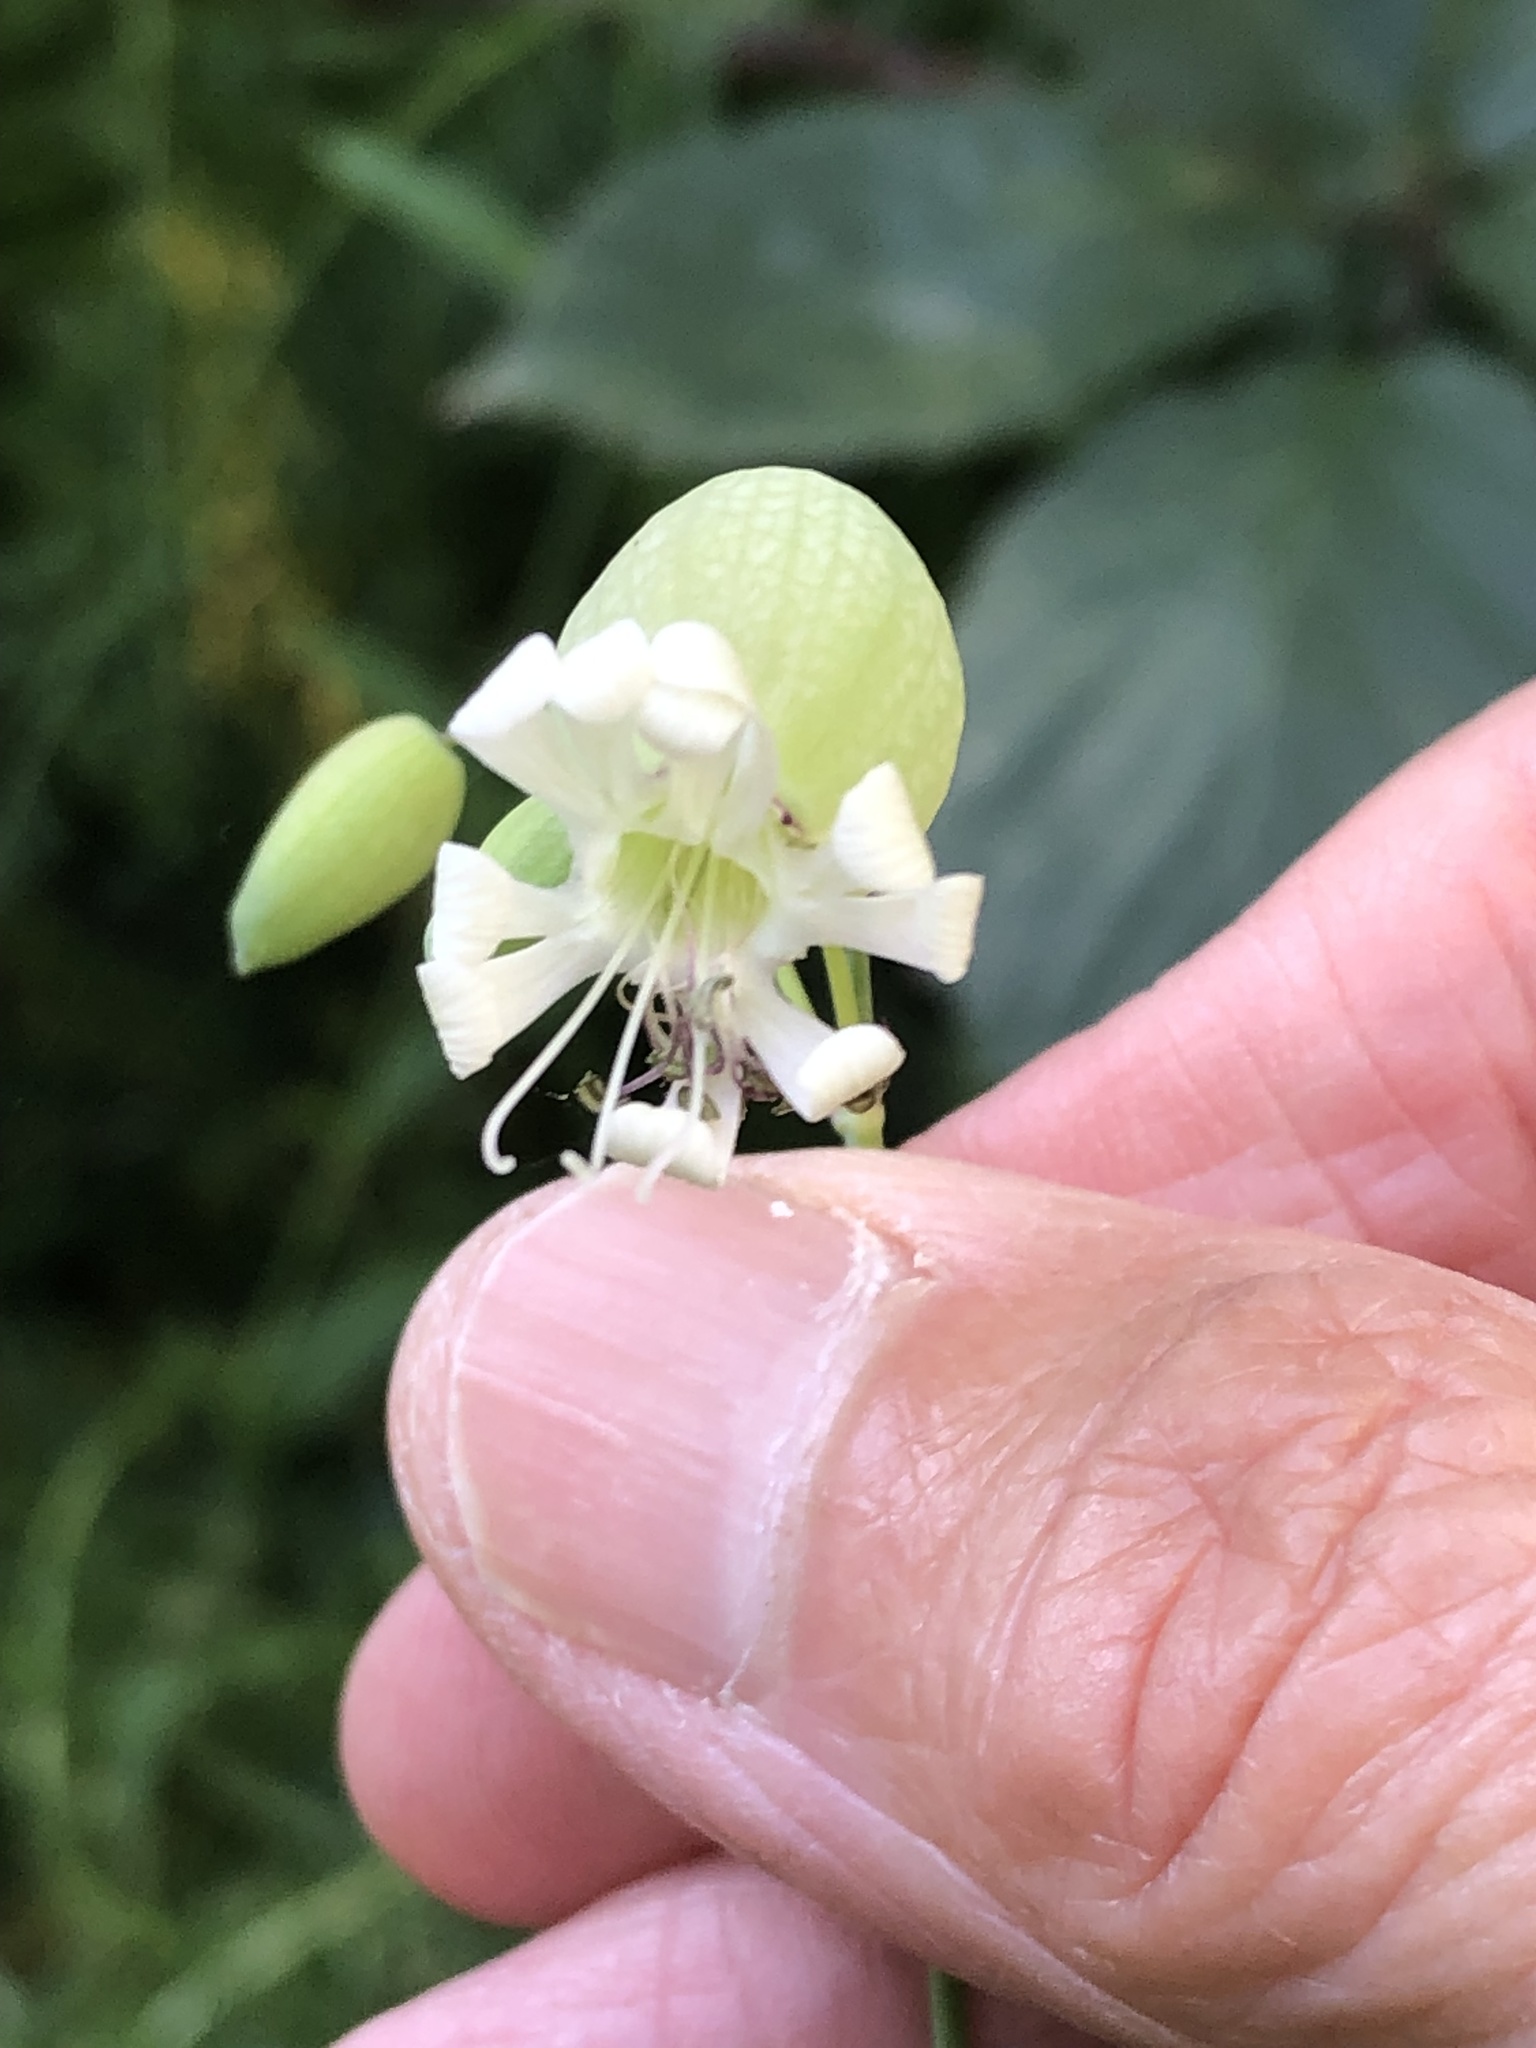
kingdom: Plantae
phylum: Tracheophyta
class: Magnoliopsida
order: Caryophyllales
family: Caryophyllaceae
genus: Silene
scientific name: Silene vulgaris
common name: Bladder campion
